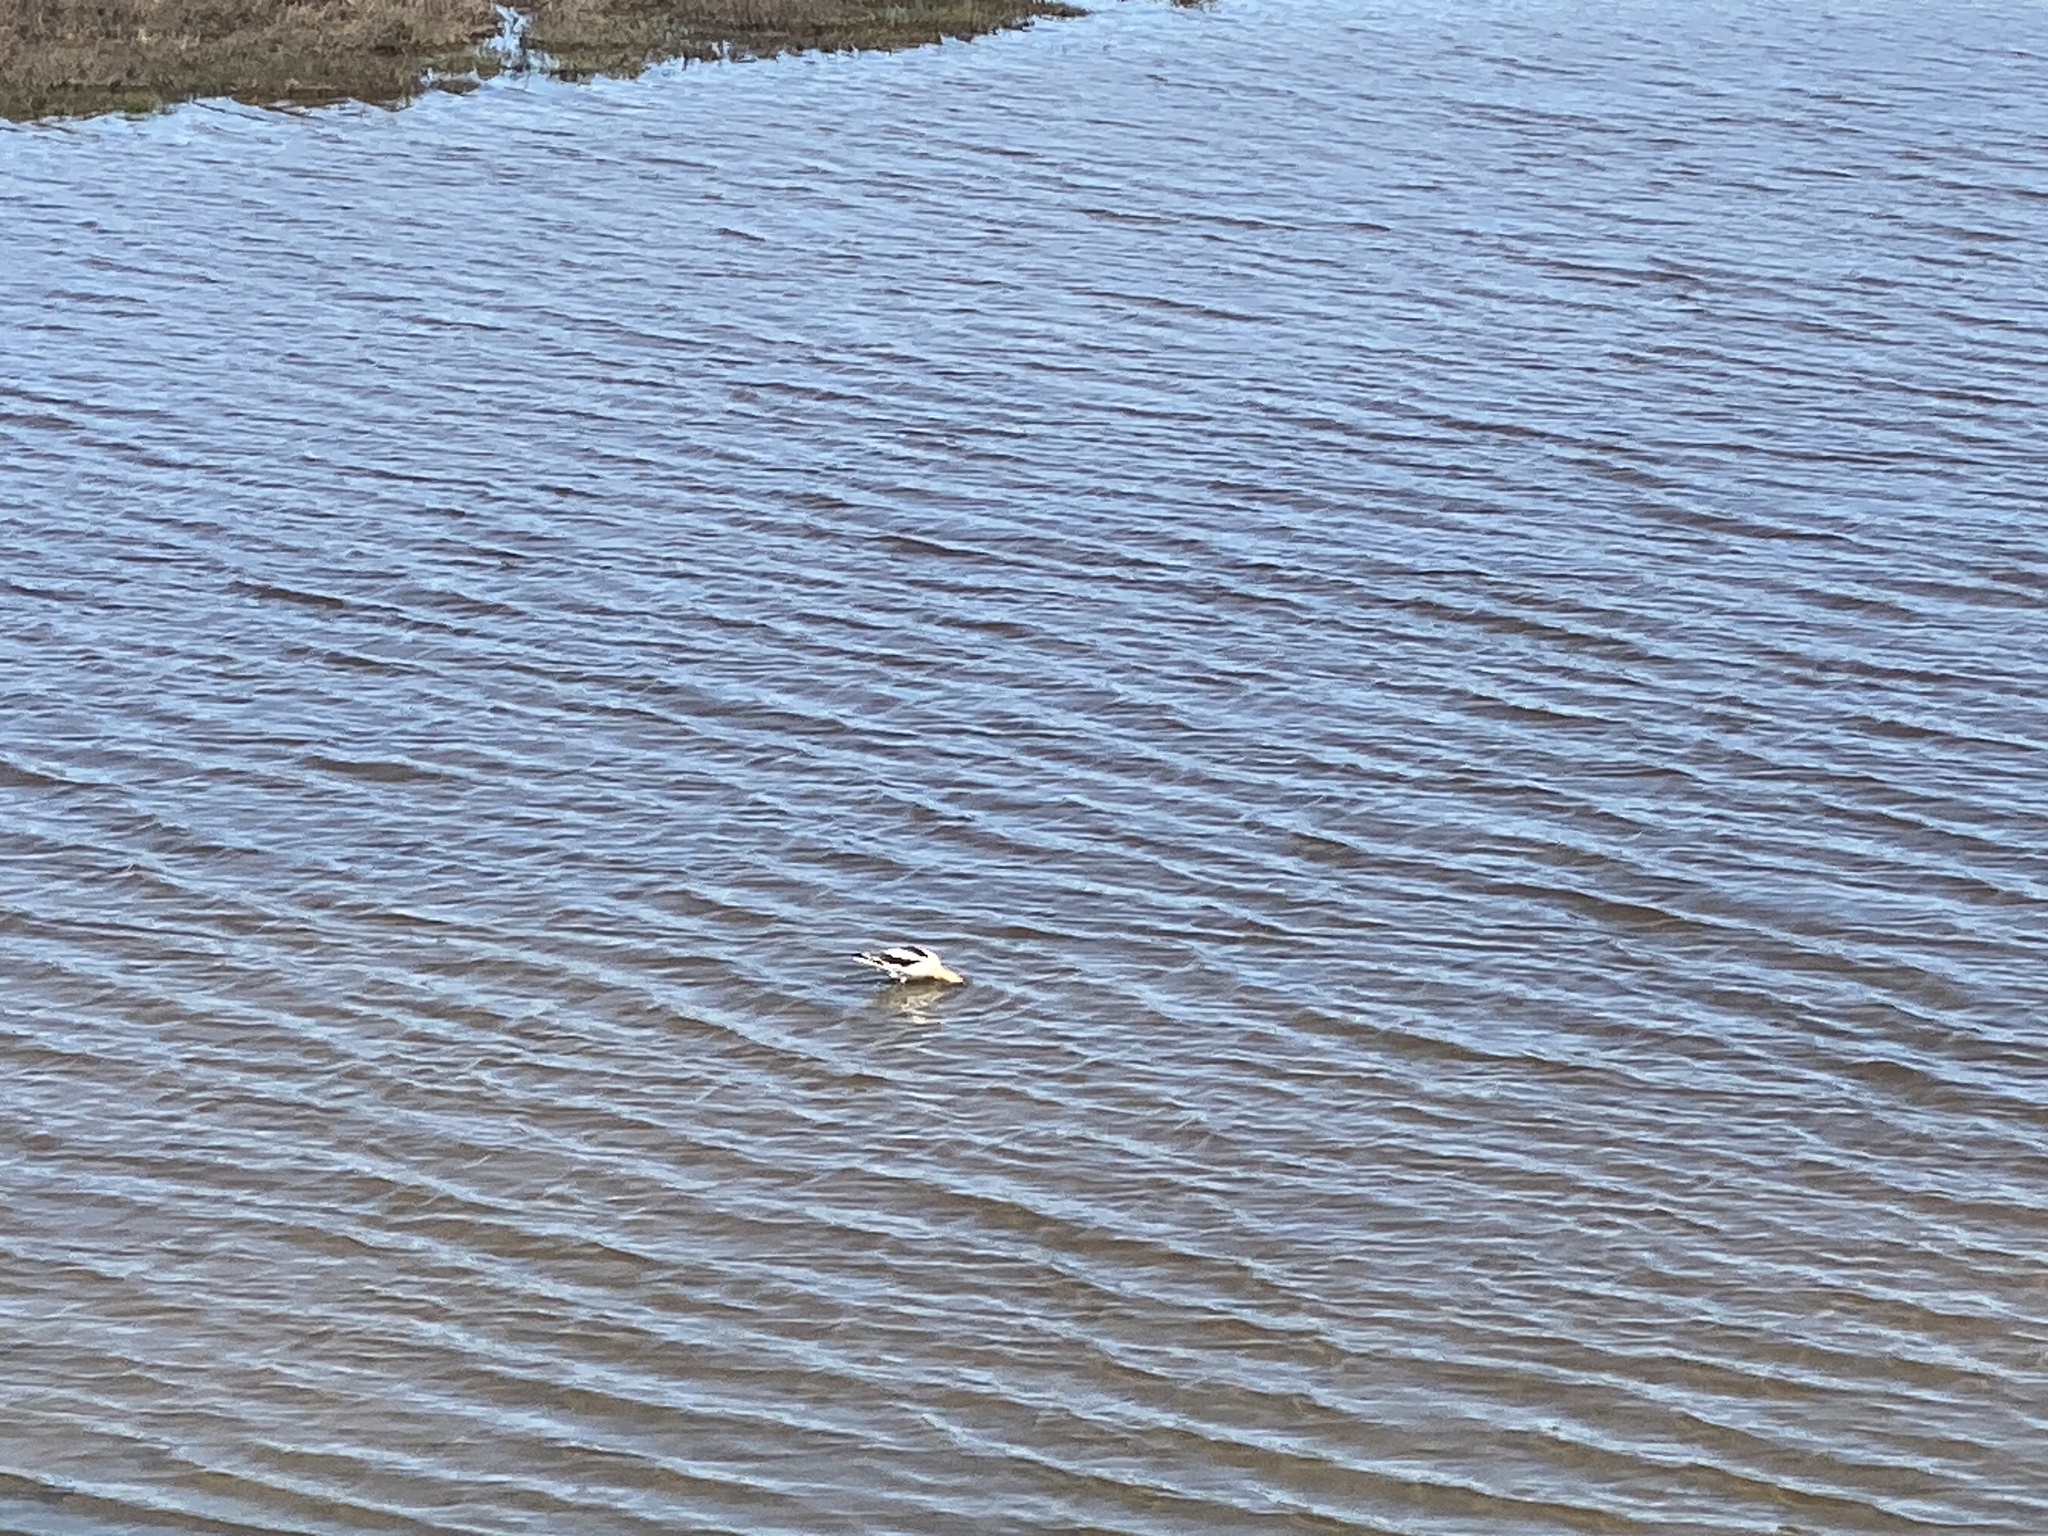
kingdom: Animalia
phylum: Chordata
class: Aves
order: Charadriiformes
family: Recurvirostridae
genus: Recurvirostra
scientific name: Recurvirostra americana
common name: American avocet
